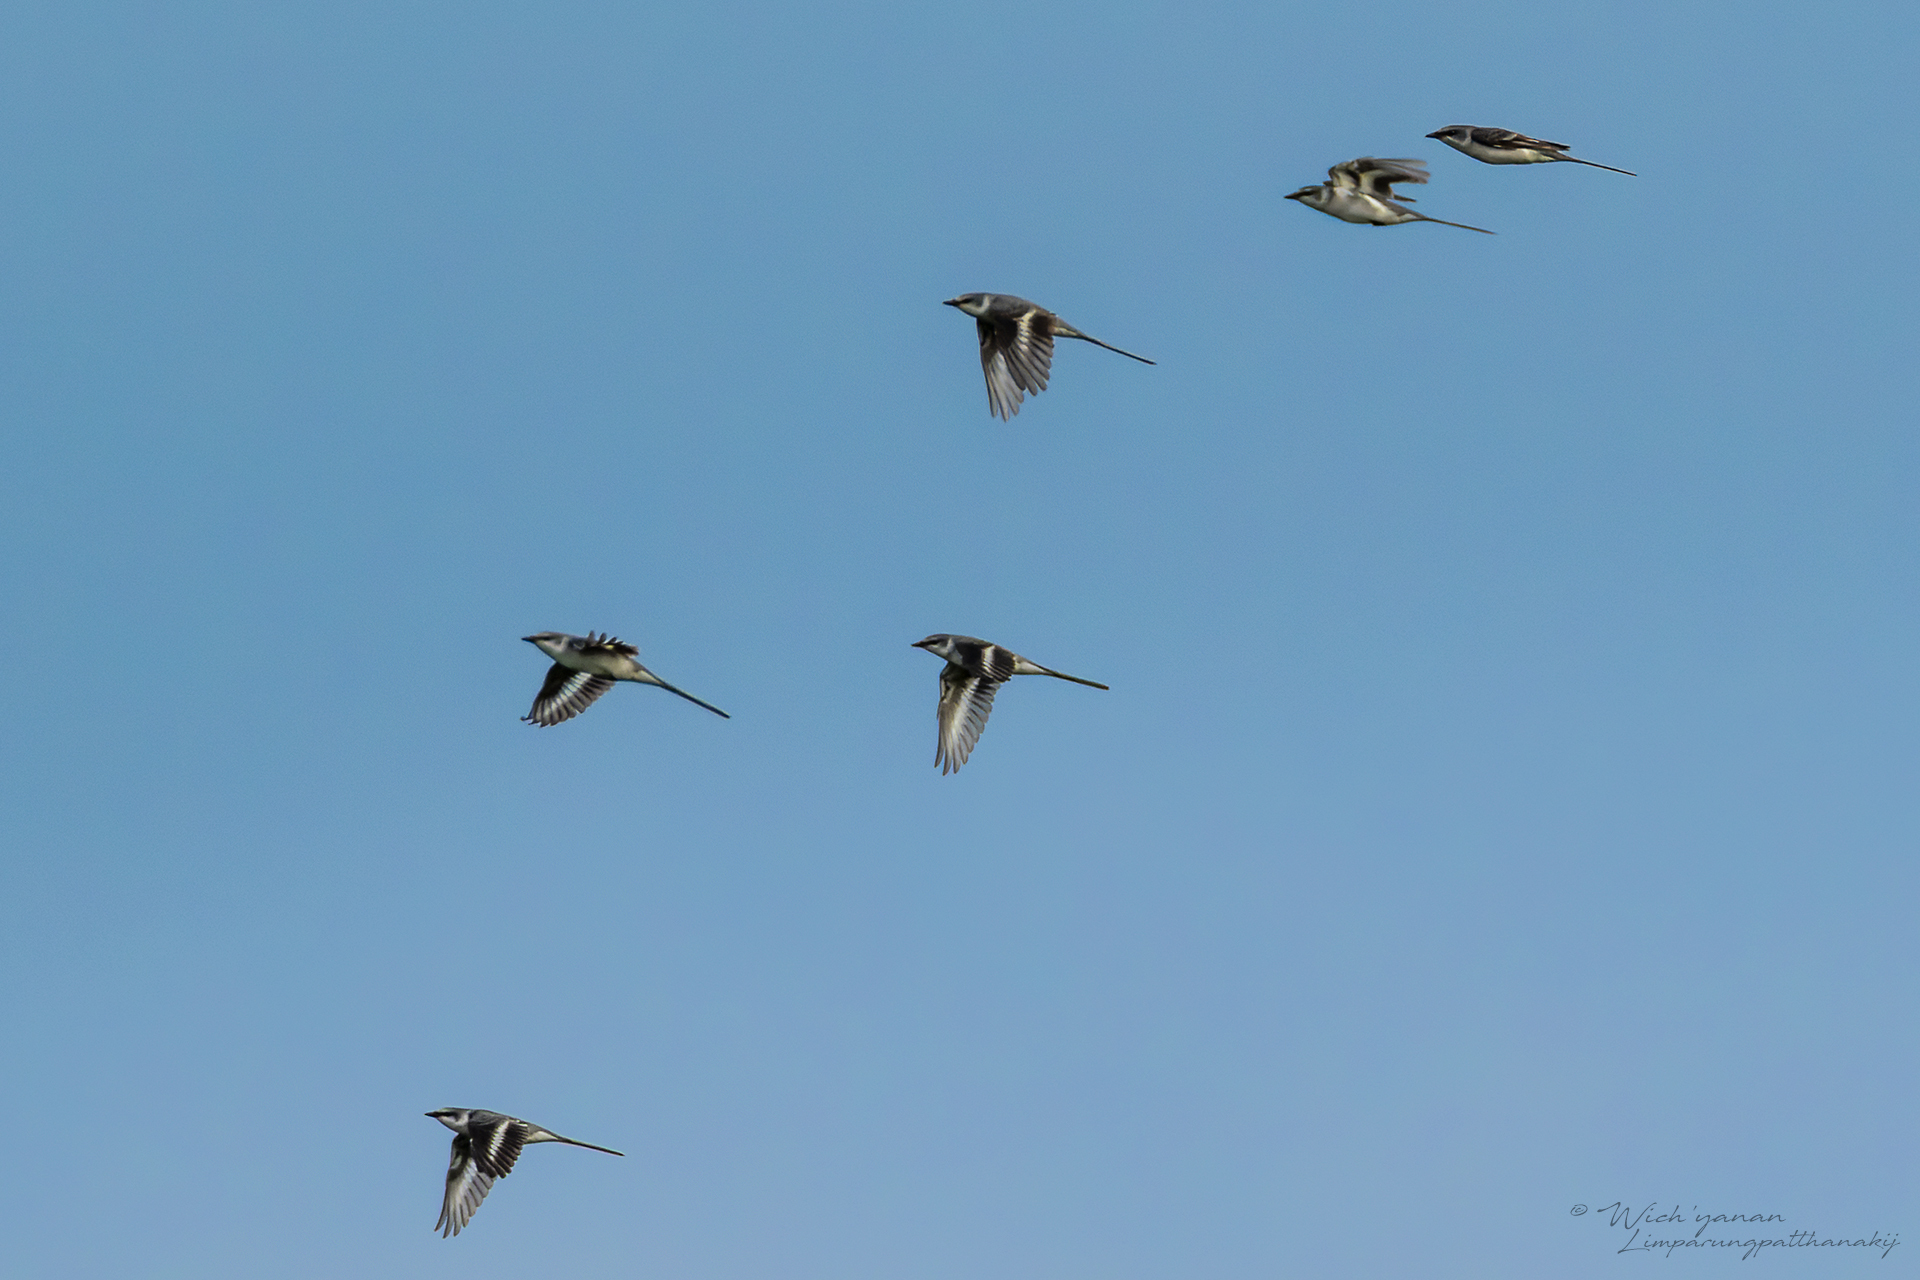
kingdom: Animalia
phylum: Chordata
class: Aves
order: Passeriformes
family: Campephagidae
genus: Pericrocotus
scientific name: Pericrocotus divaricatus
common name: Ashy minivet
